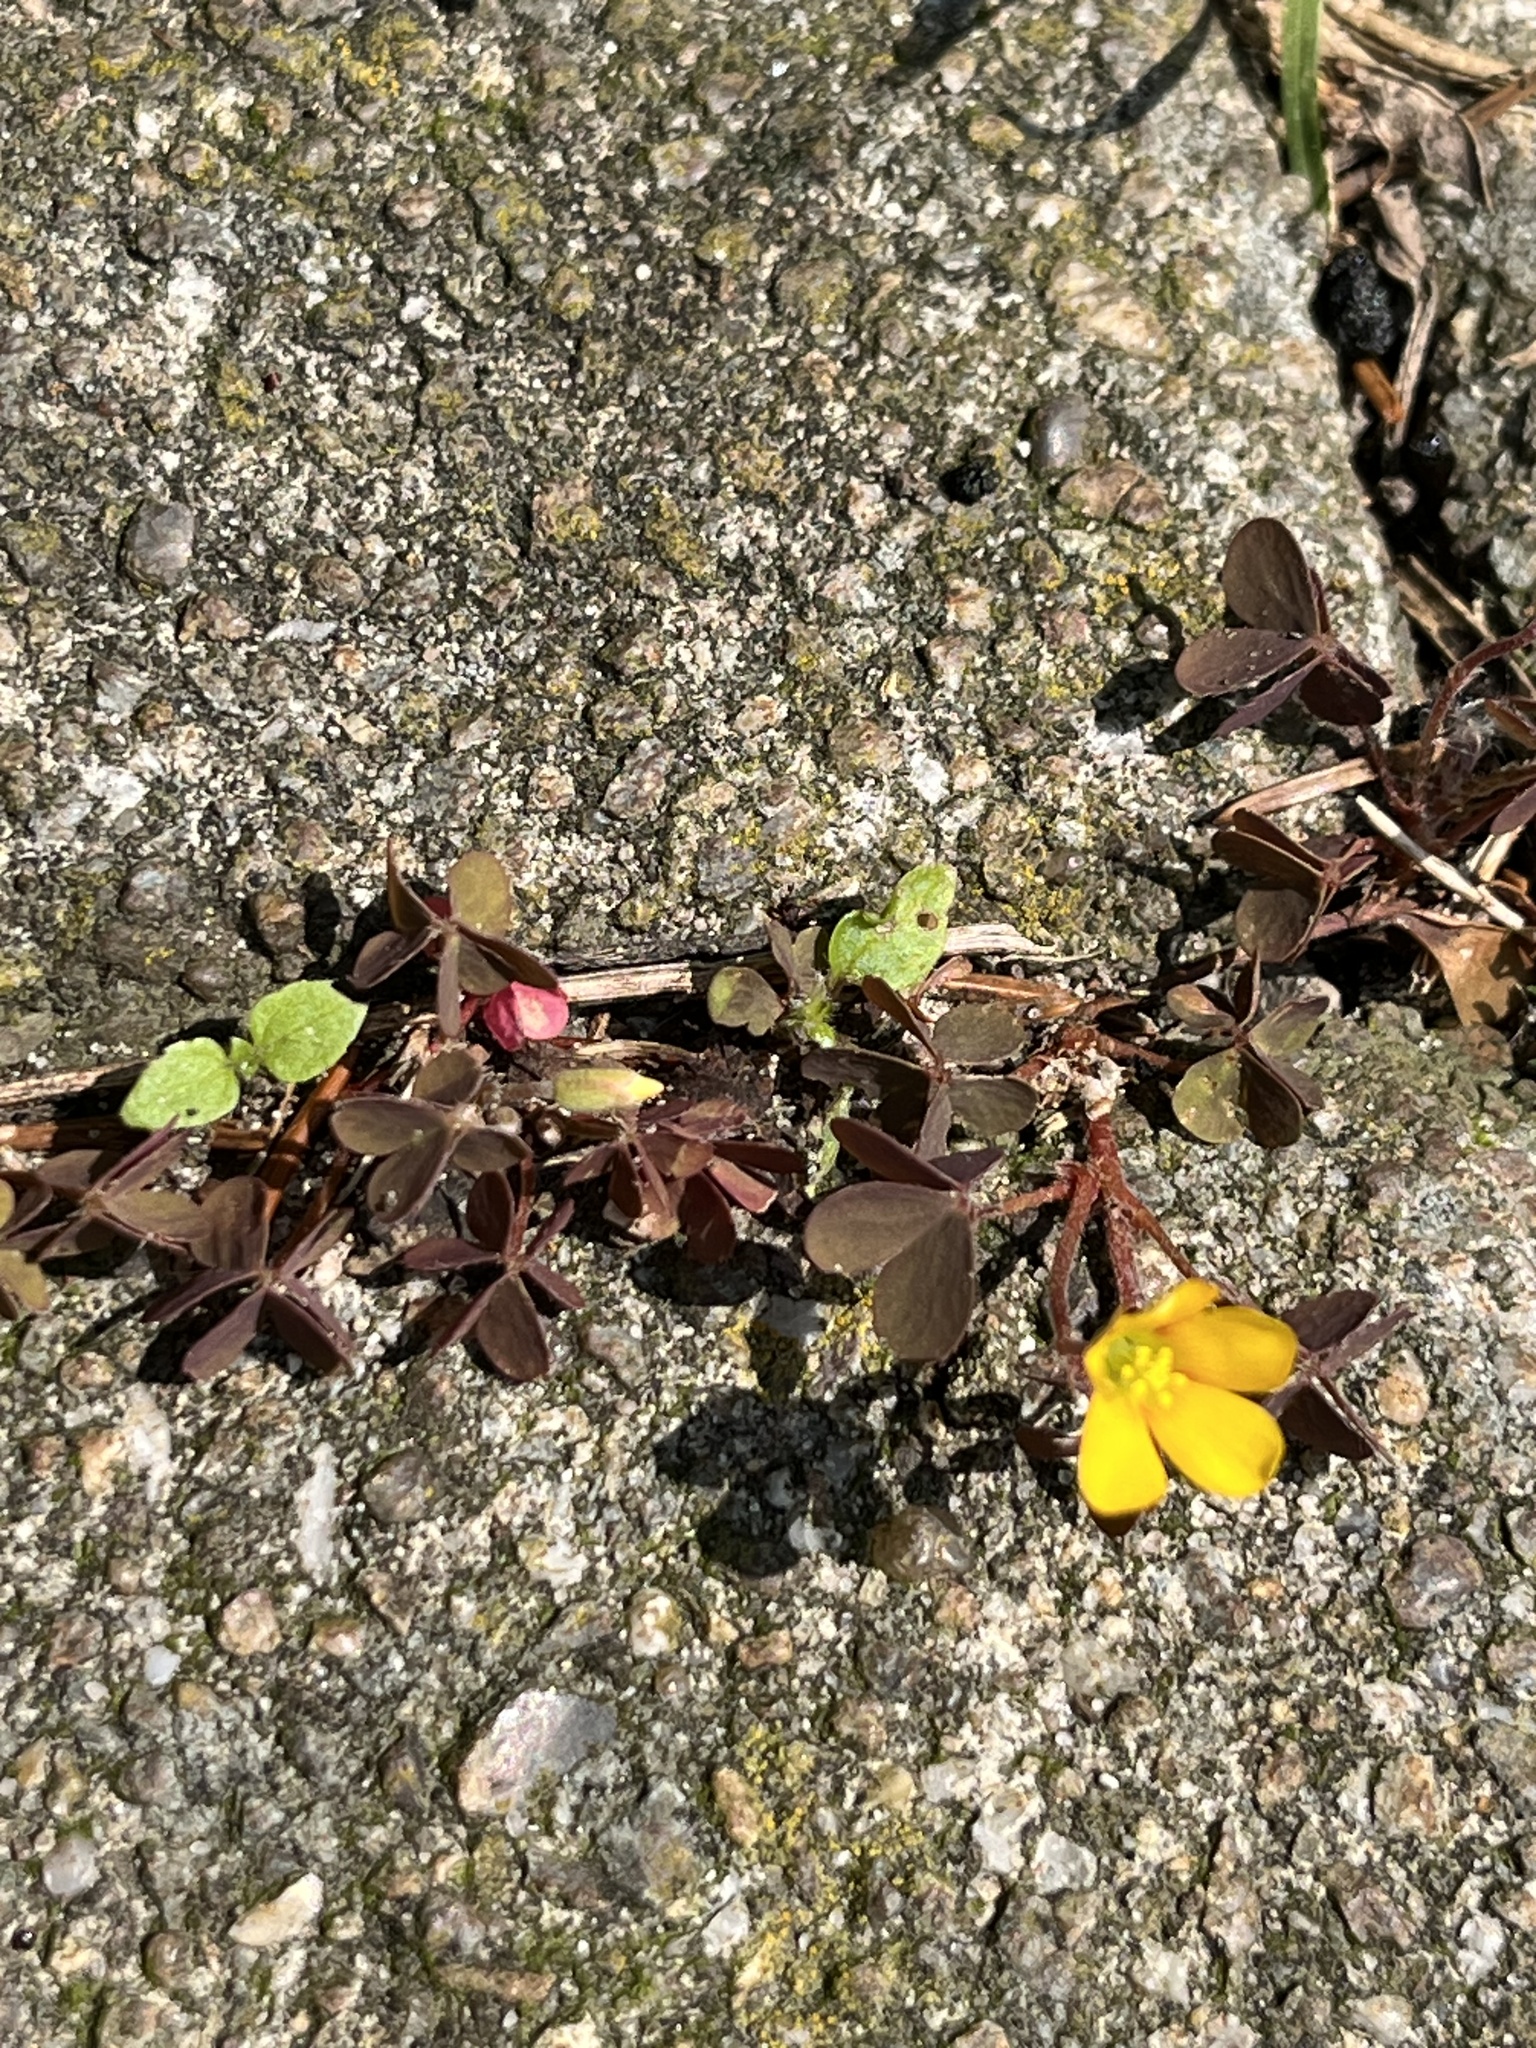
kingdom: Plantae
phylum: Tracheophyta
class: Magnoliopsida
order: Oxalidales
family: Oxalidaceae
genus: Oxalis
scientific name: Oxalis corniculata
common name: Procumbent yellow-sorrel
